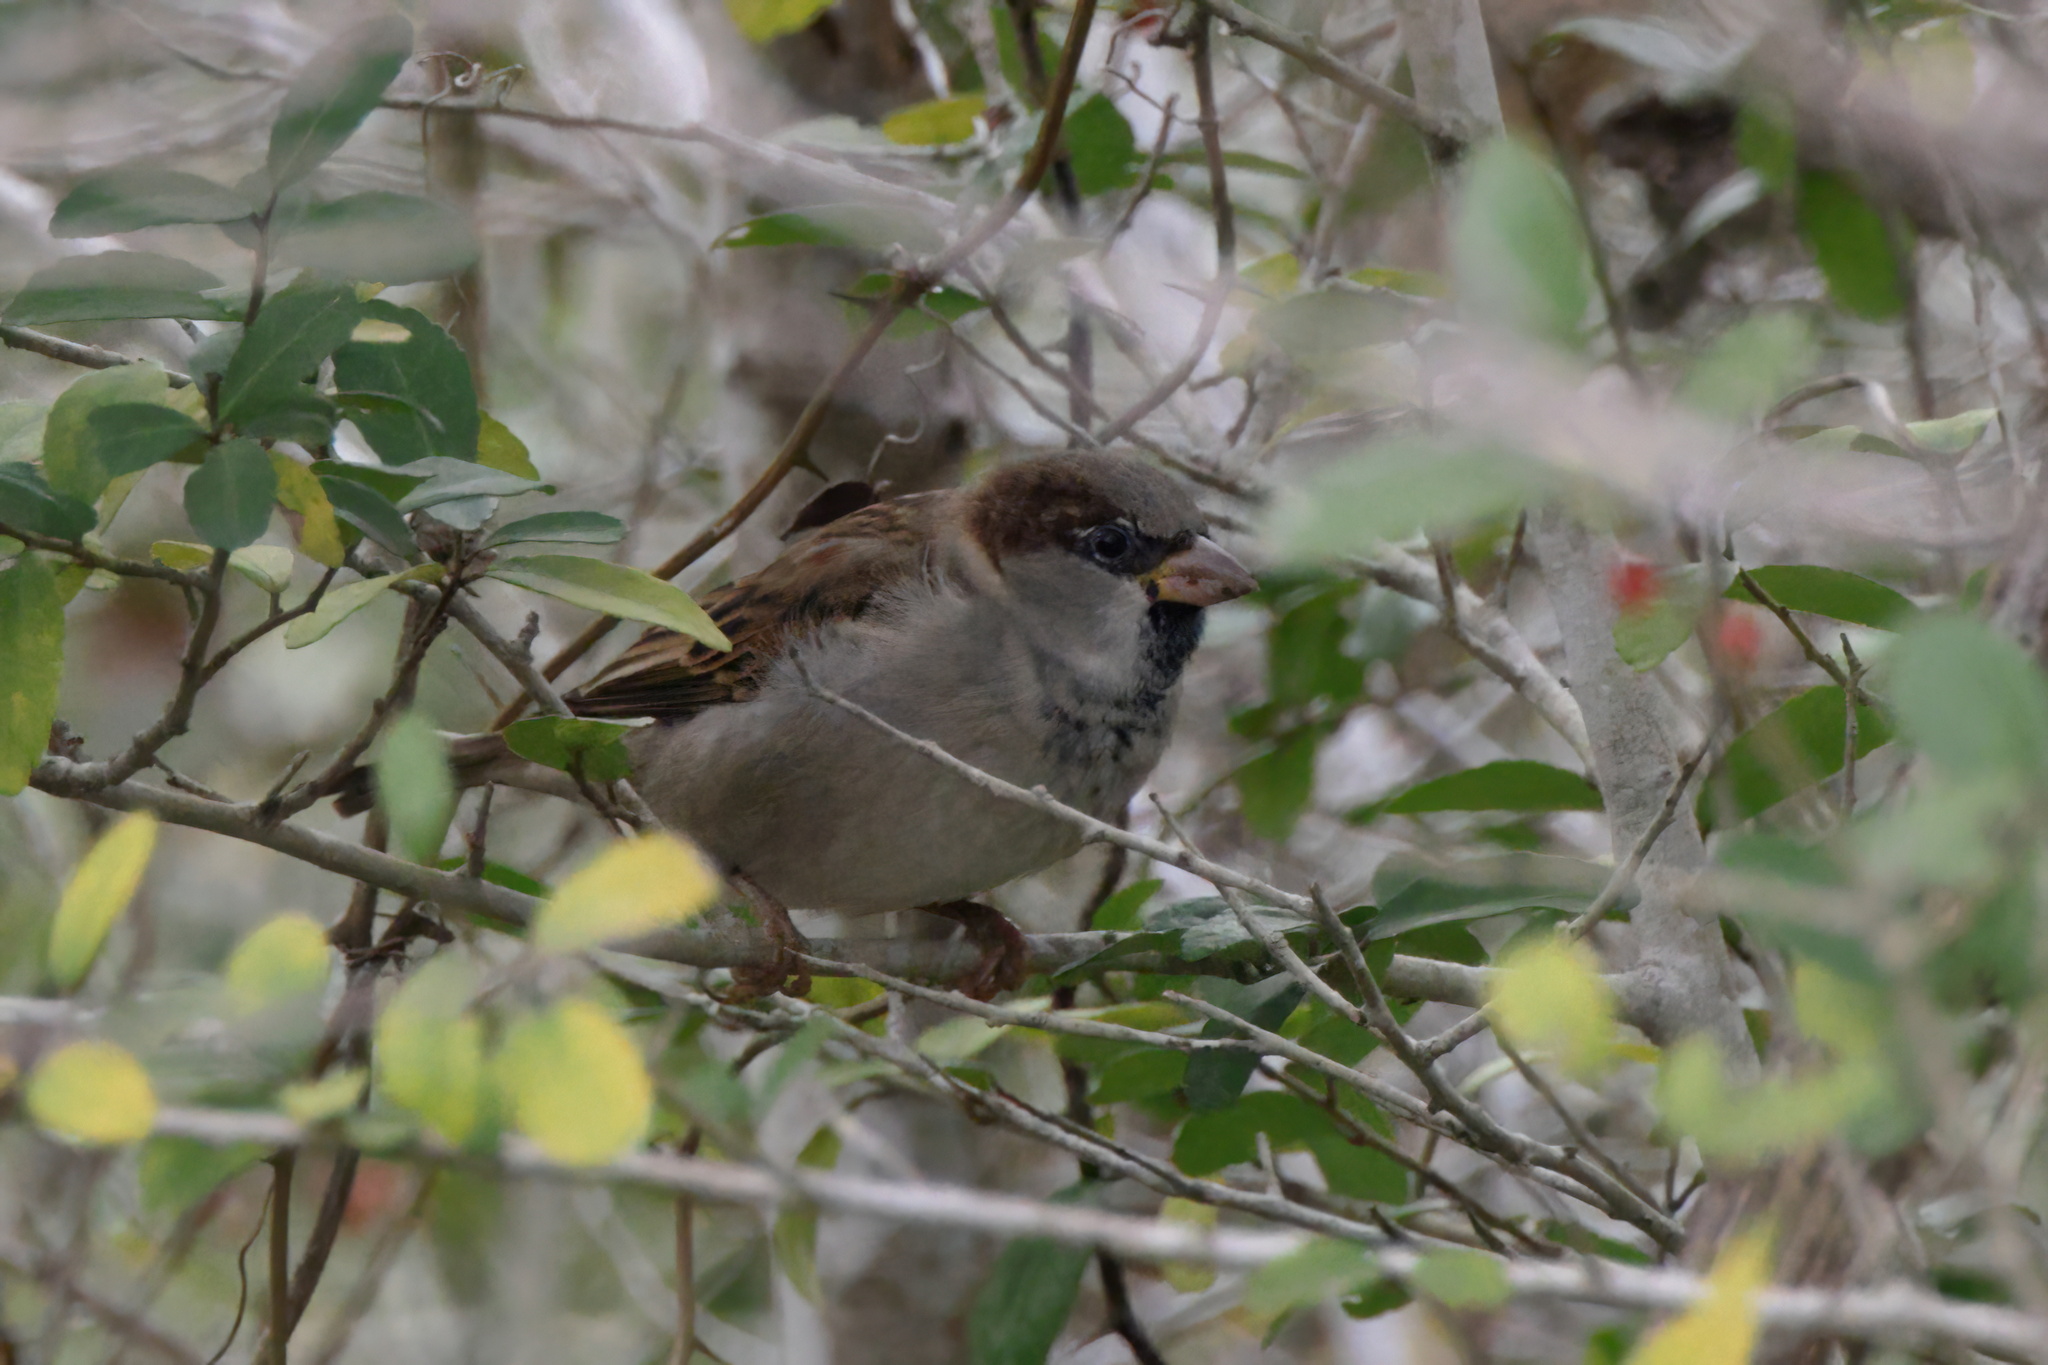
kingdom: Animalia
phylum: Chordata
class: Aves
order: Passeriformes
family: Passeridae
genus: Passer
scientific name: Passer domesticus
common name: House sparrow
